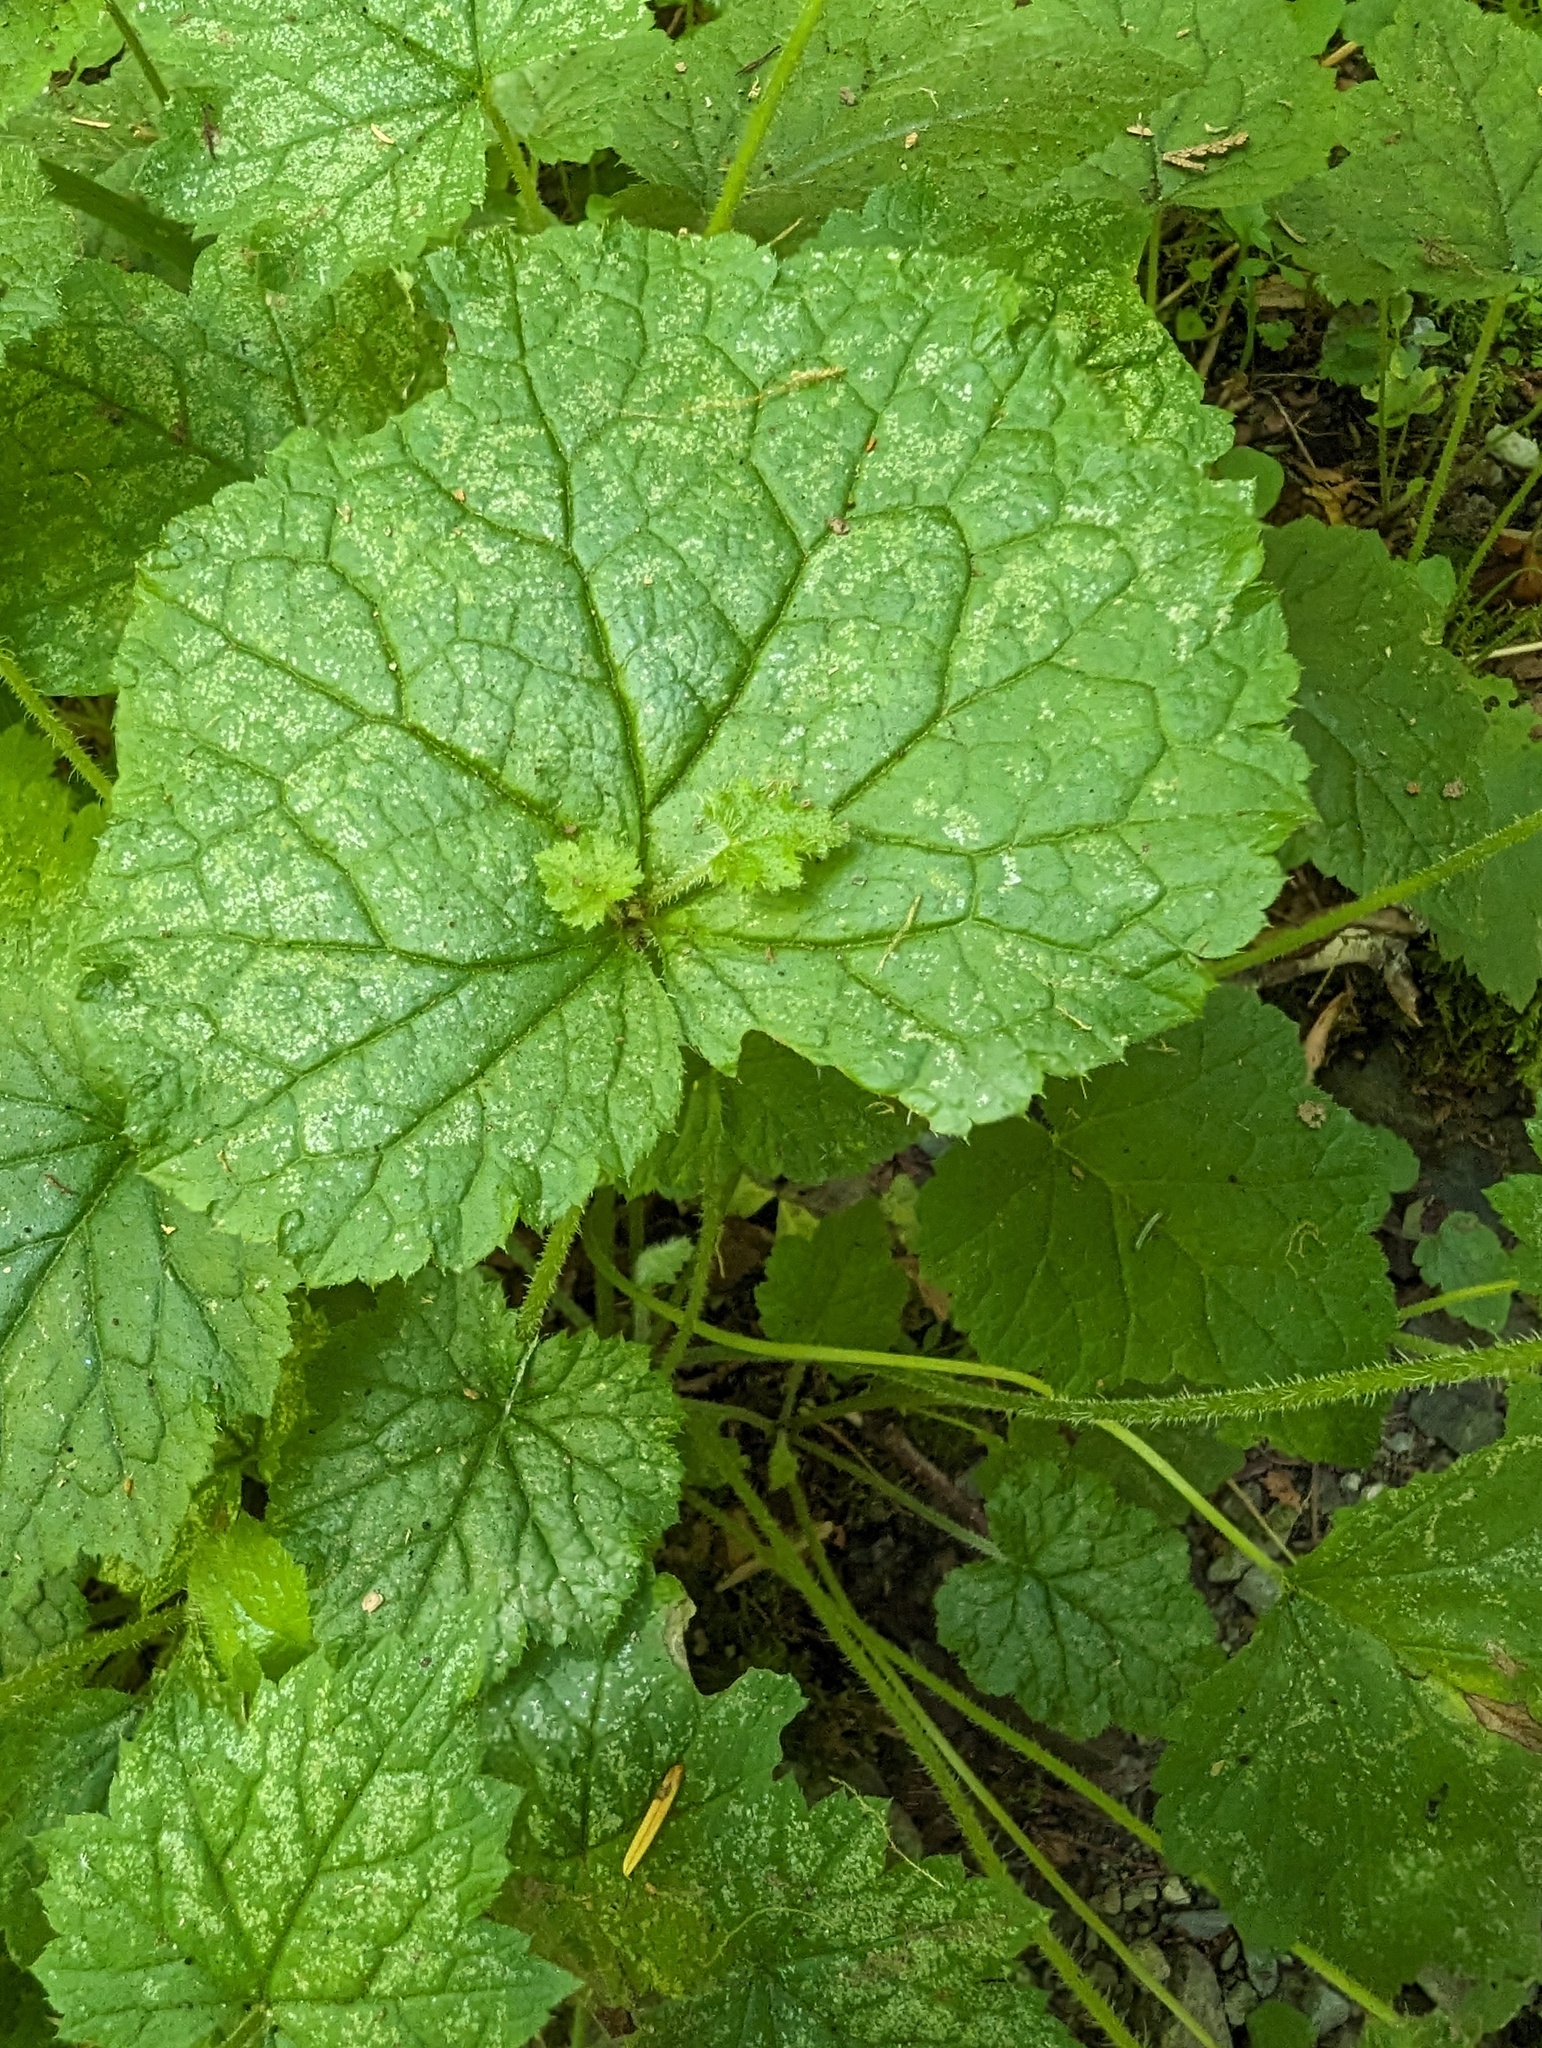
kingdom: Plantae
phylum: Tracheophyta
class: Magnoliopsida
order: Saxifragales
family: Saxifragaceae
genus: Tolmiea
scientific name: Tolmiea menziesii
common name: Pick-a-back-plant
